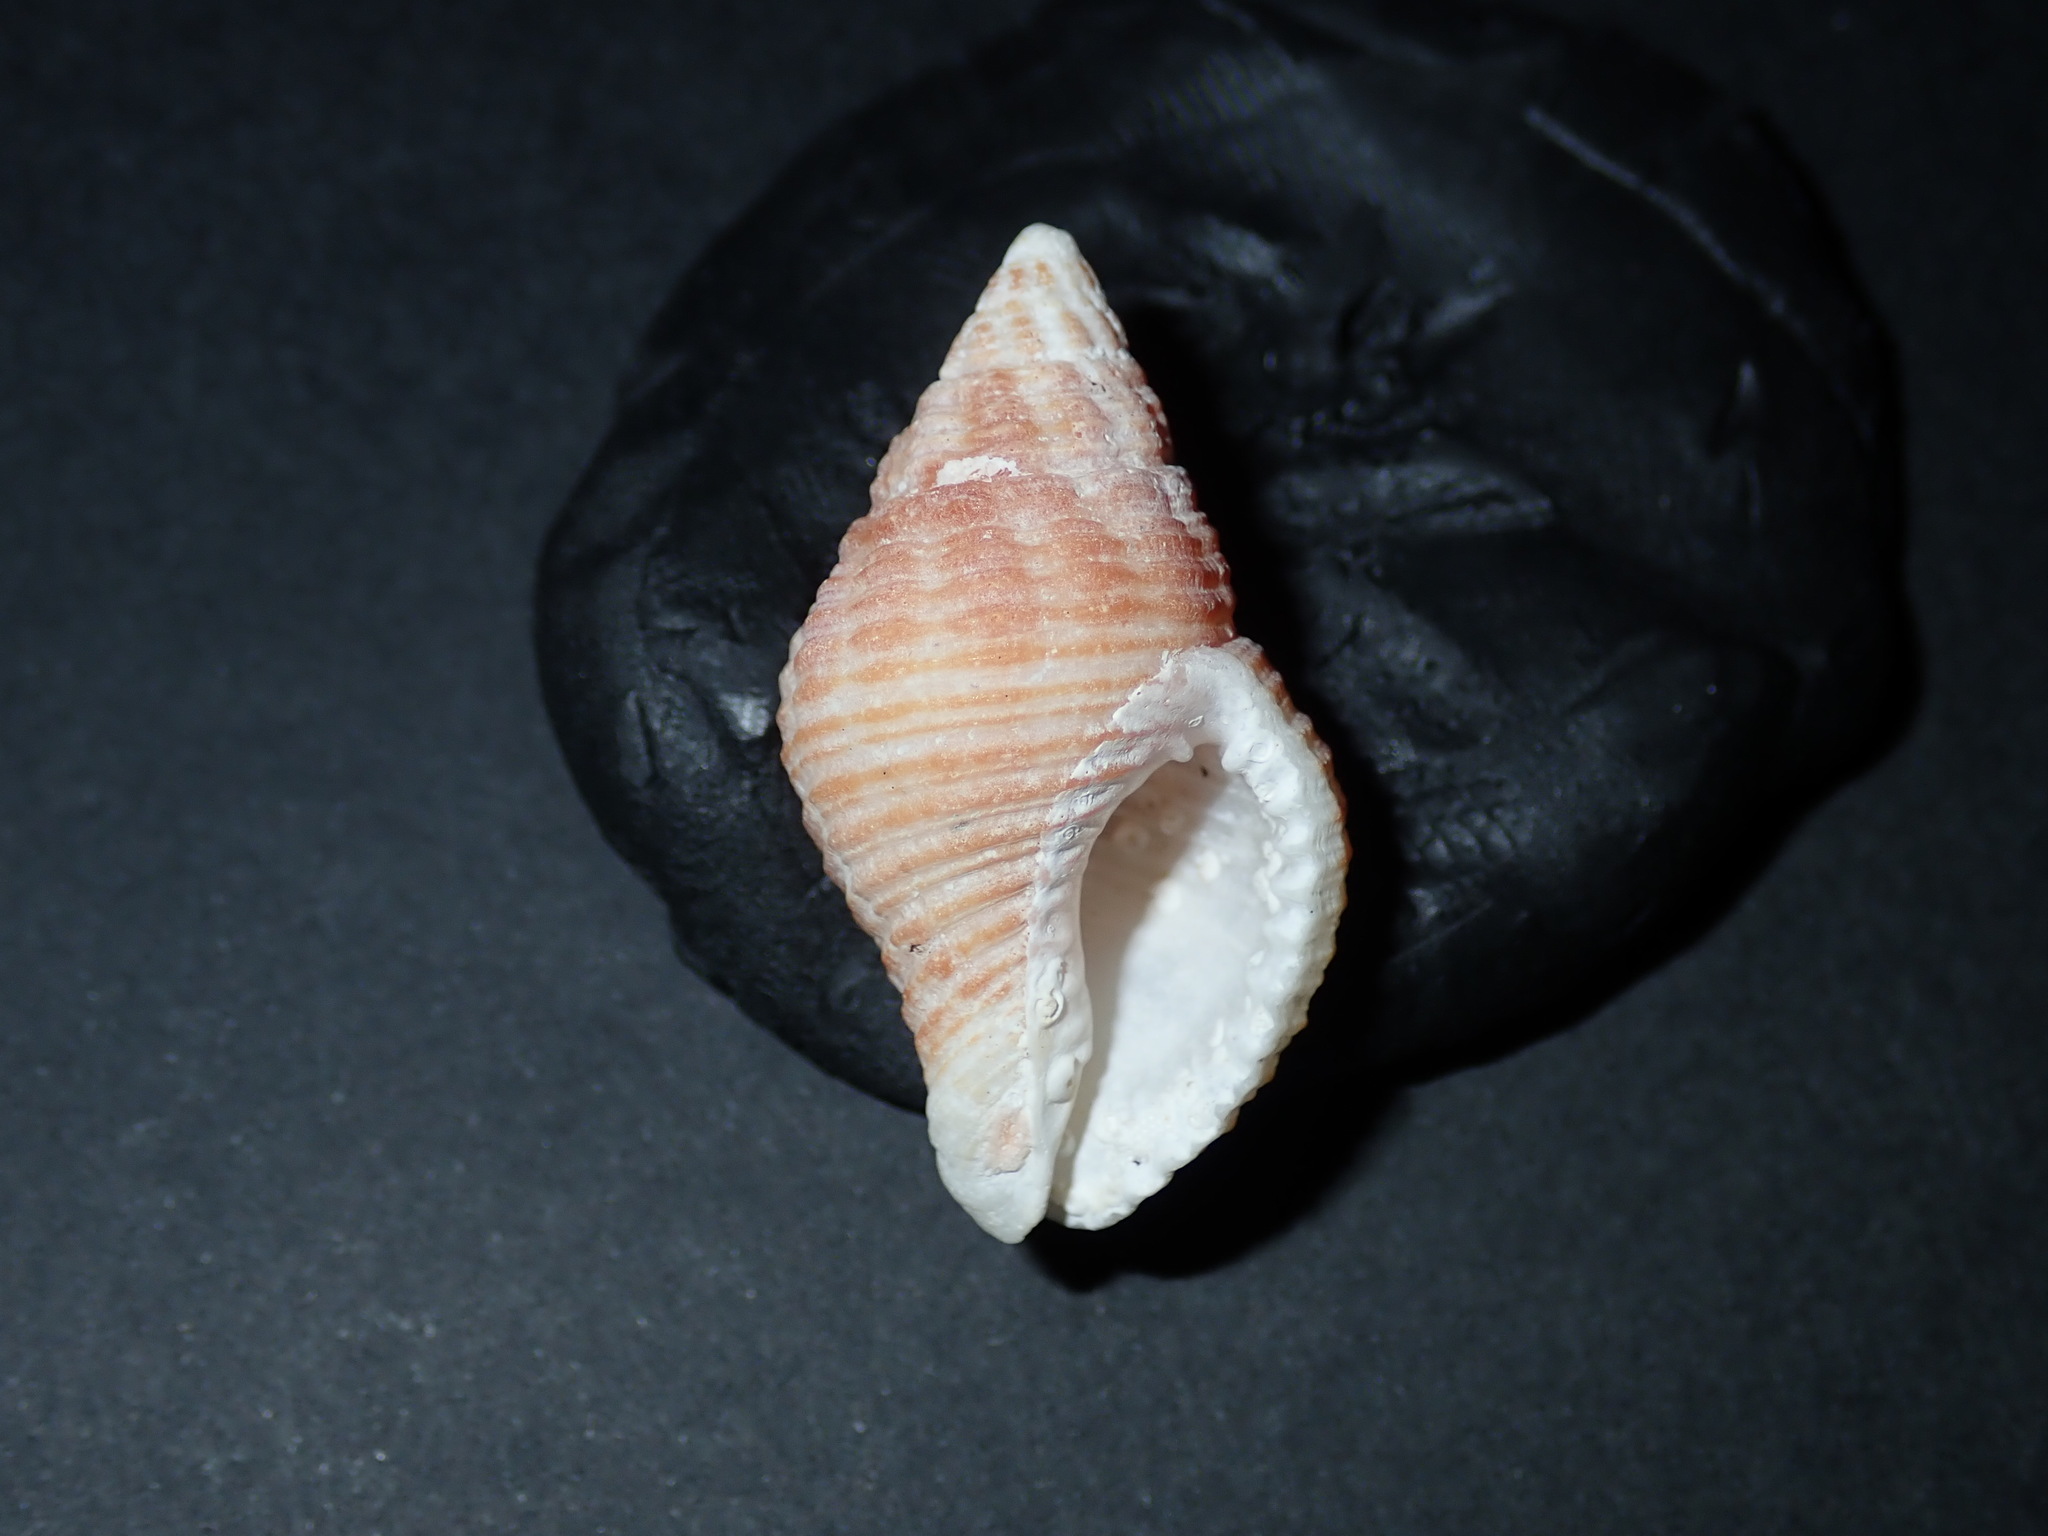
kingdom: Animalia
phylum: Mollusca
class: Gastropoda
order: Neogastropoda
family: Pisaniidae
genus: Pollia
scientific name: Pollia fumosa
